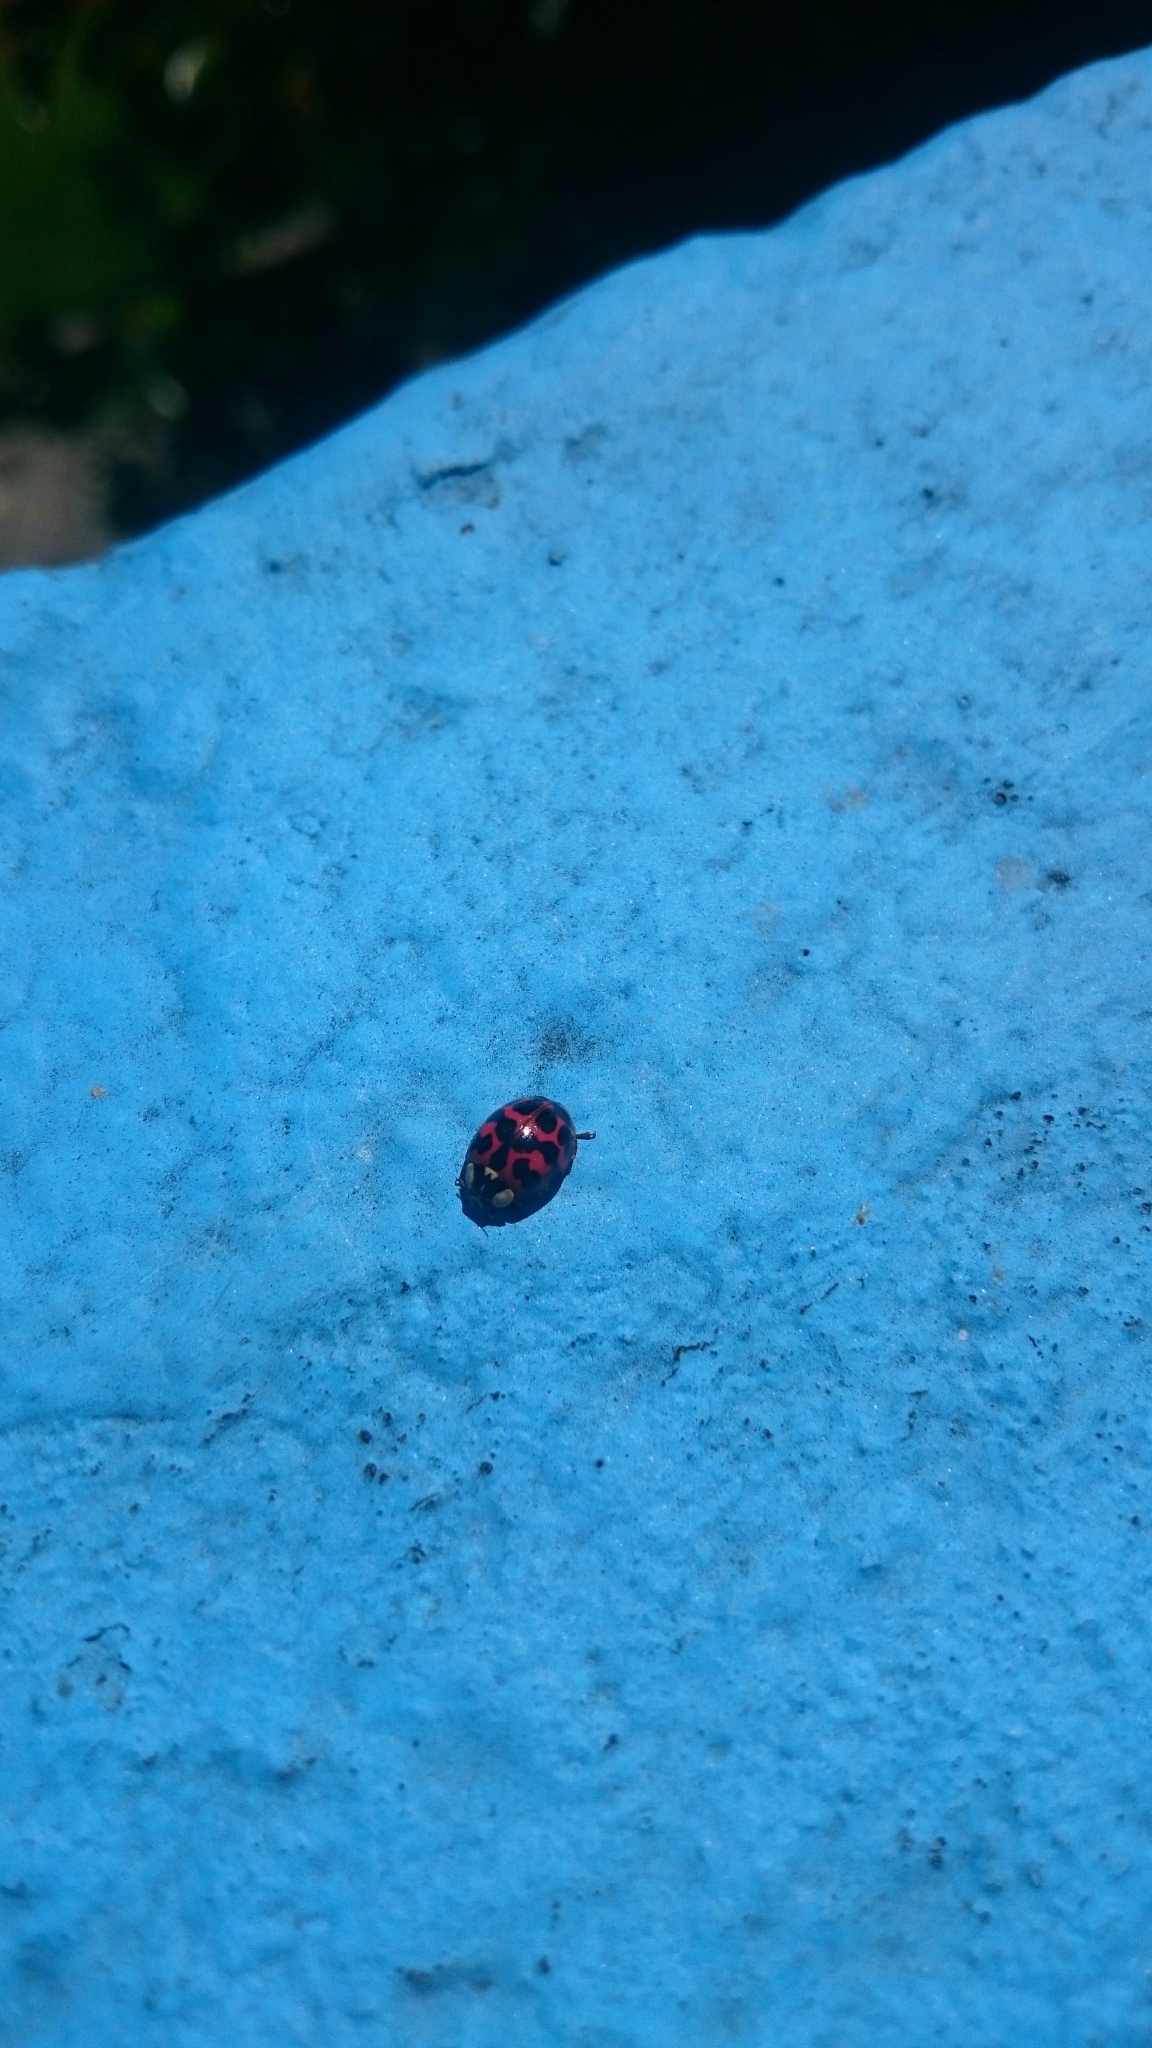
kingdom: Animalia
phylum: Arthropoda
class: Insecta
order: Coleoptera
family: Coccinellidae
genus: Harmonia
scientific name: Harmonia axyridis
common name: Harlequin ladybird
